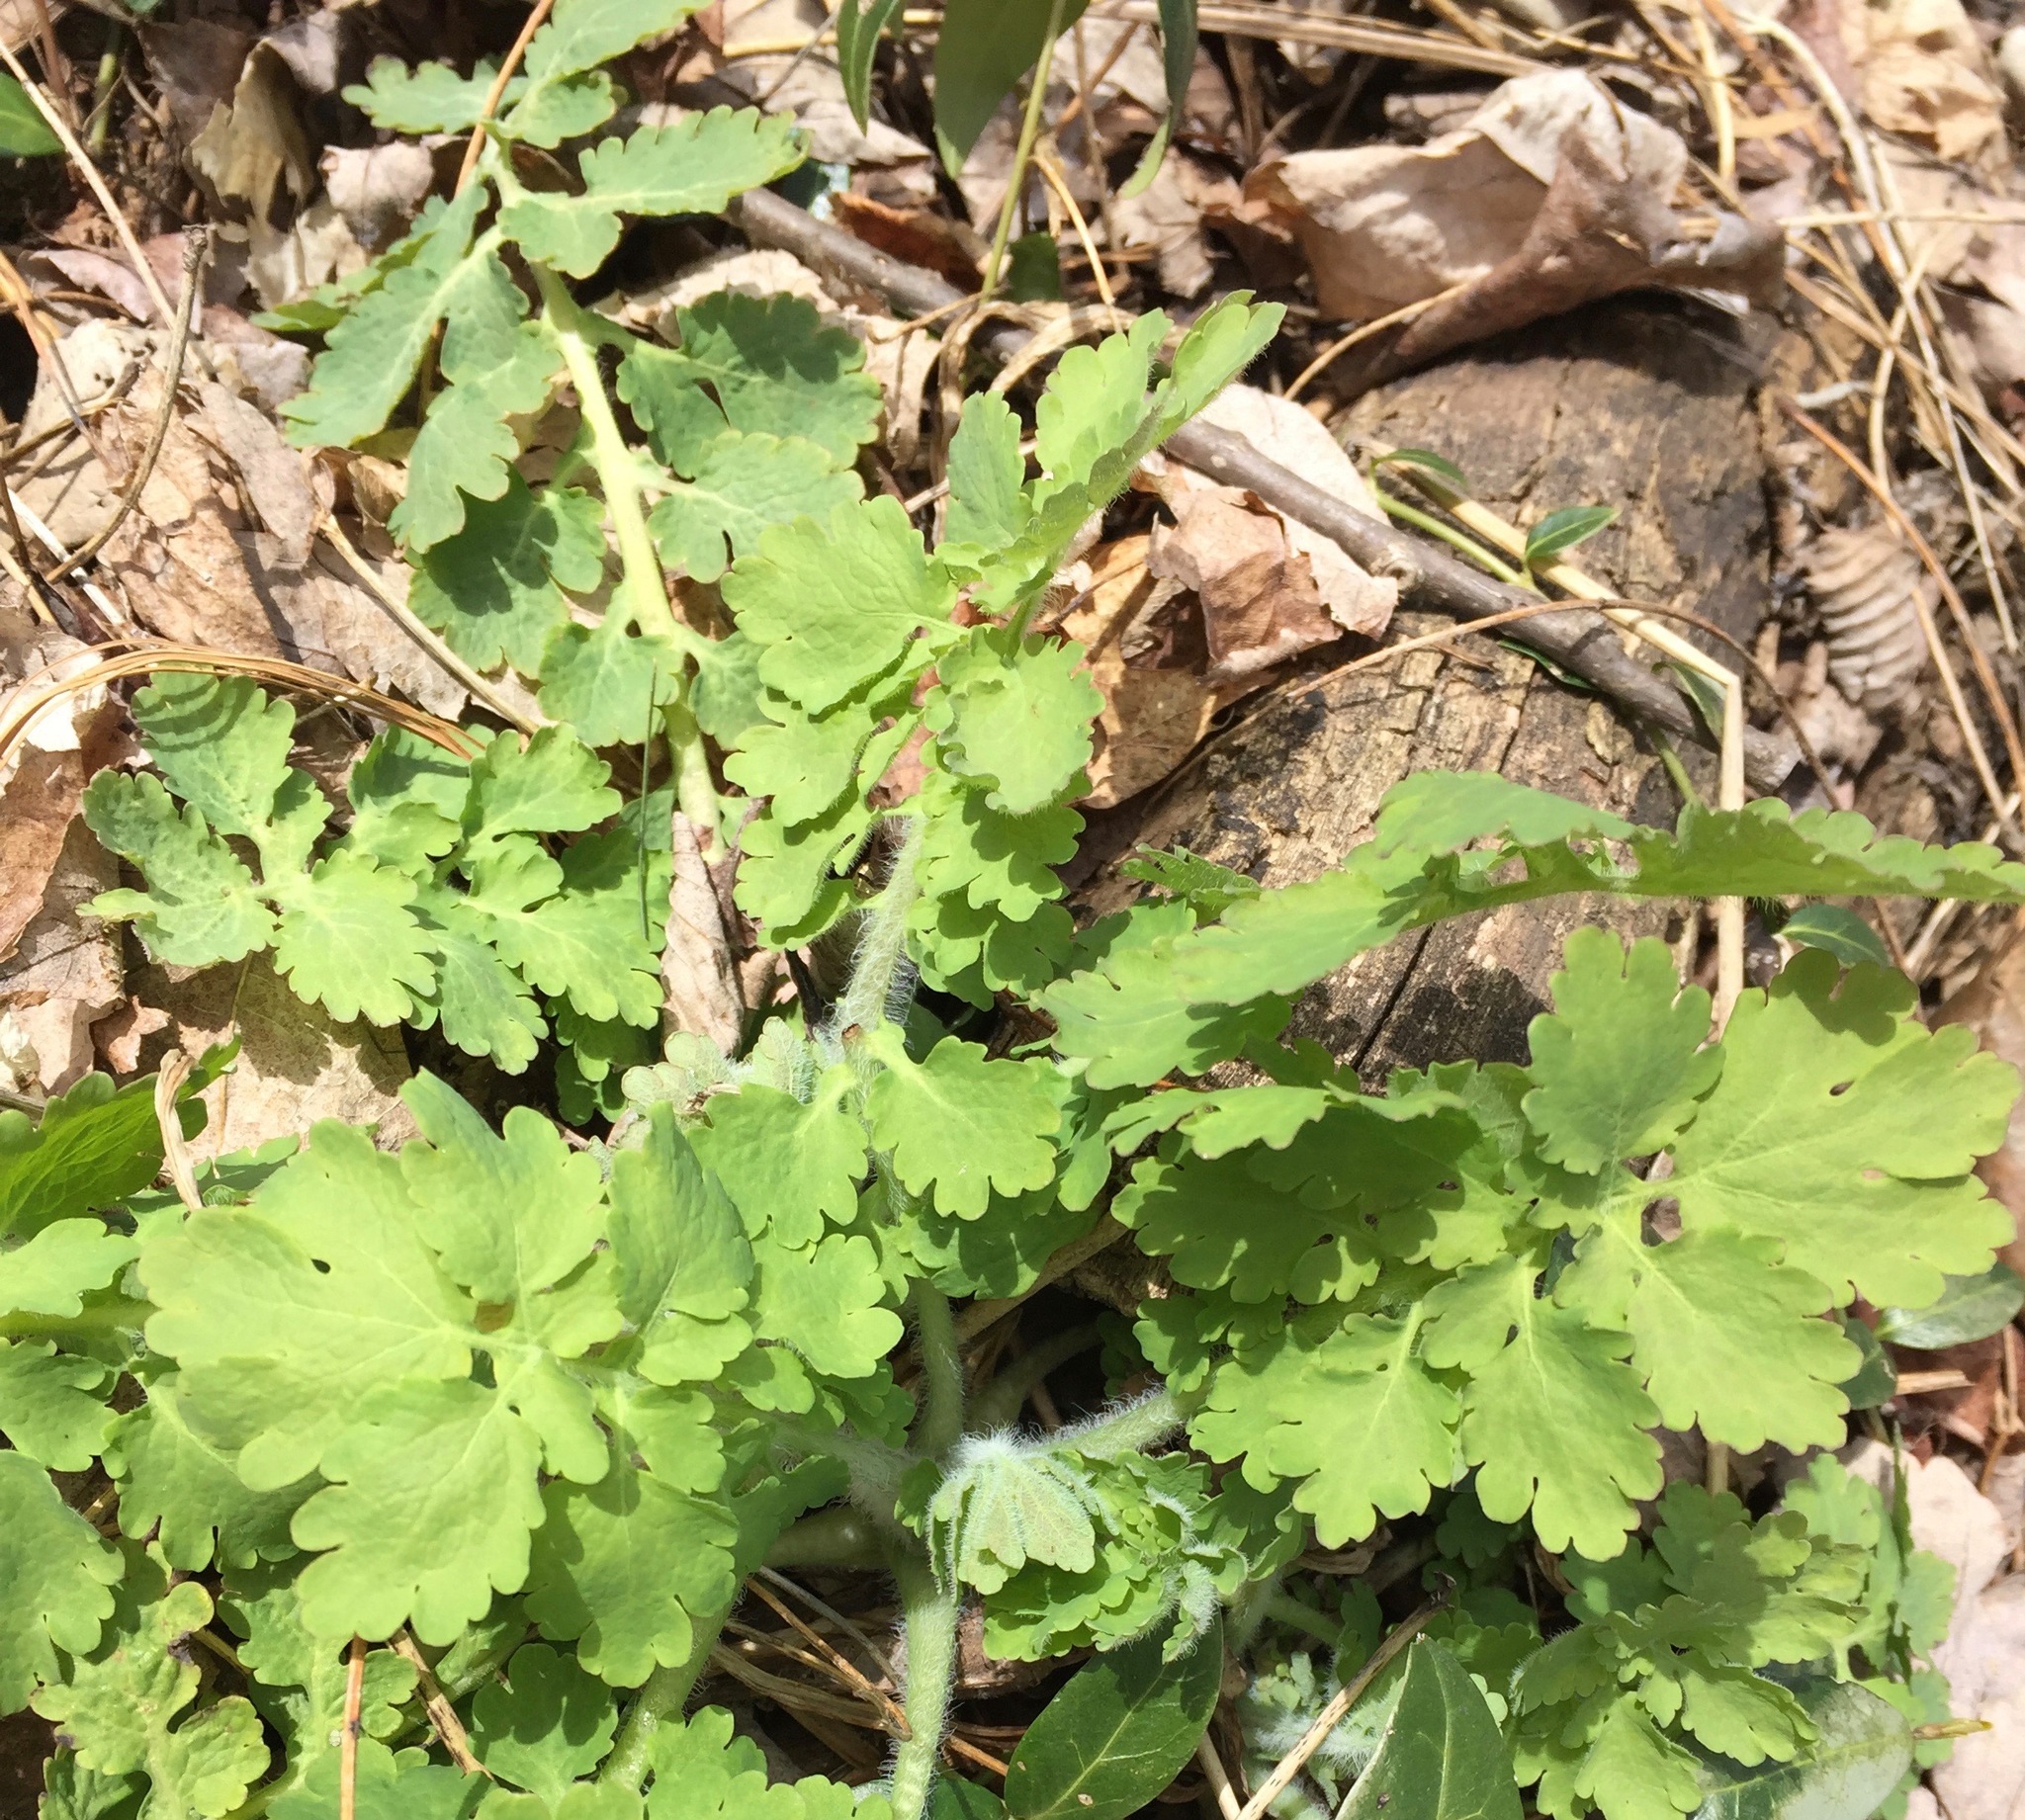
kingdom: Plantae
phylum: Tracheophyta
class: Magnoliopsida
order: Ranunculales
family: Papaveraceae
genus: Chelidonium
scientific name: Chelidonium majus
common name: Greater celandine
